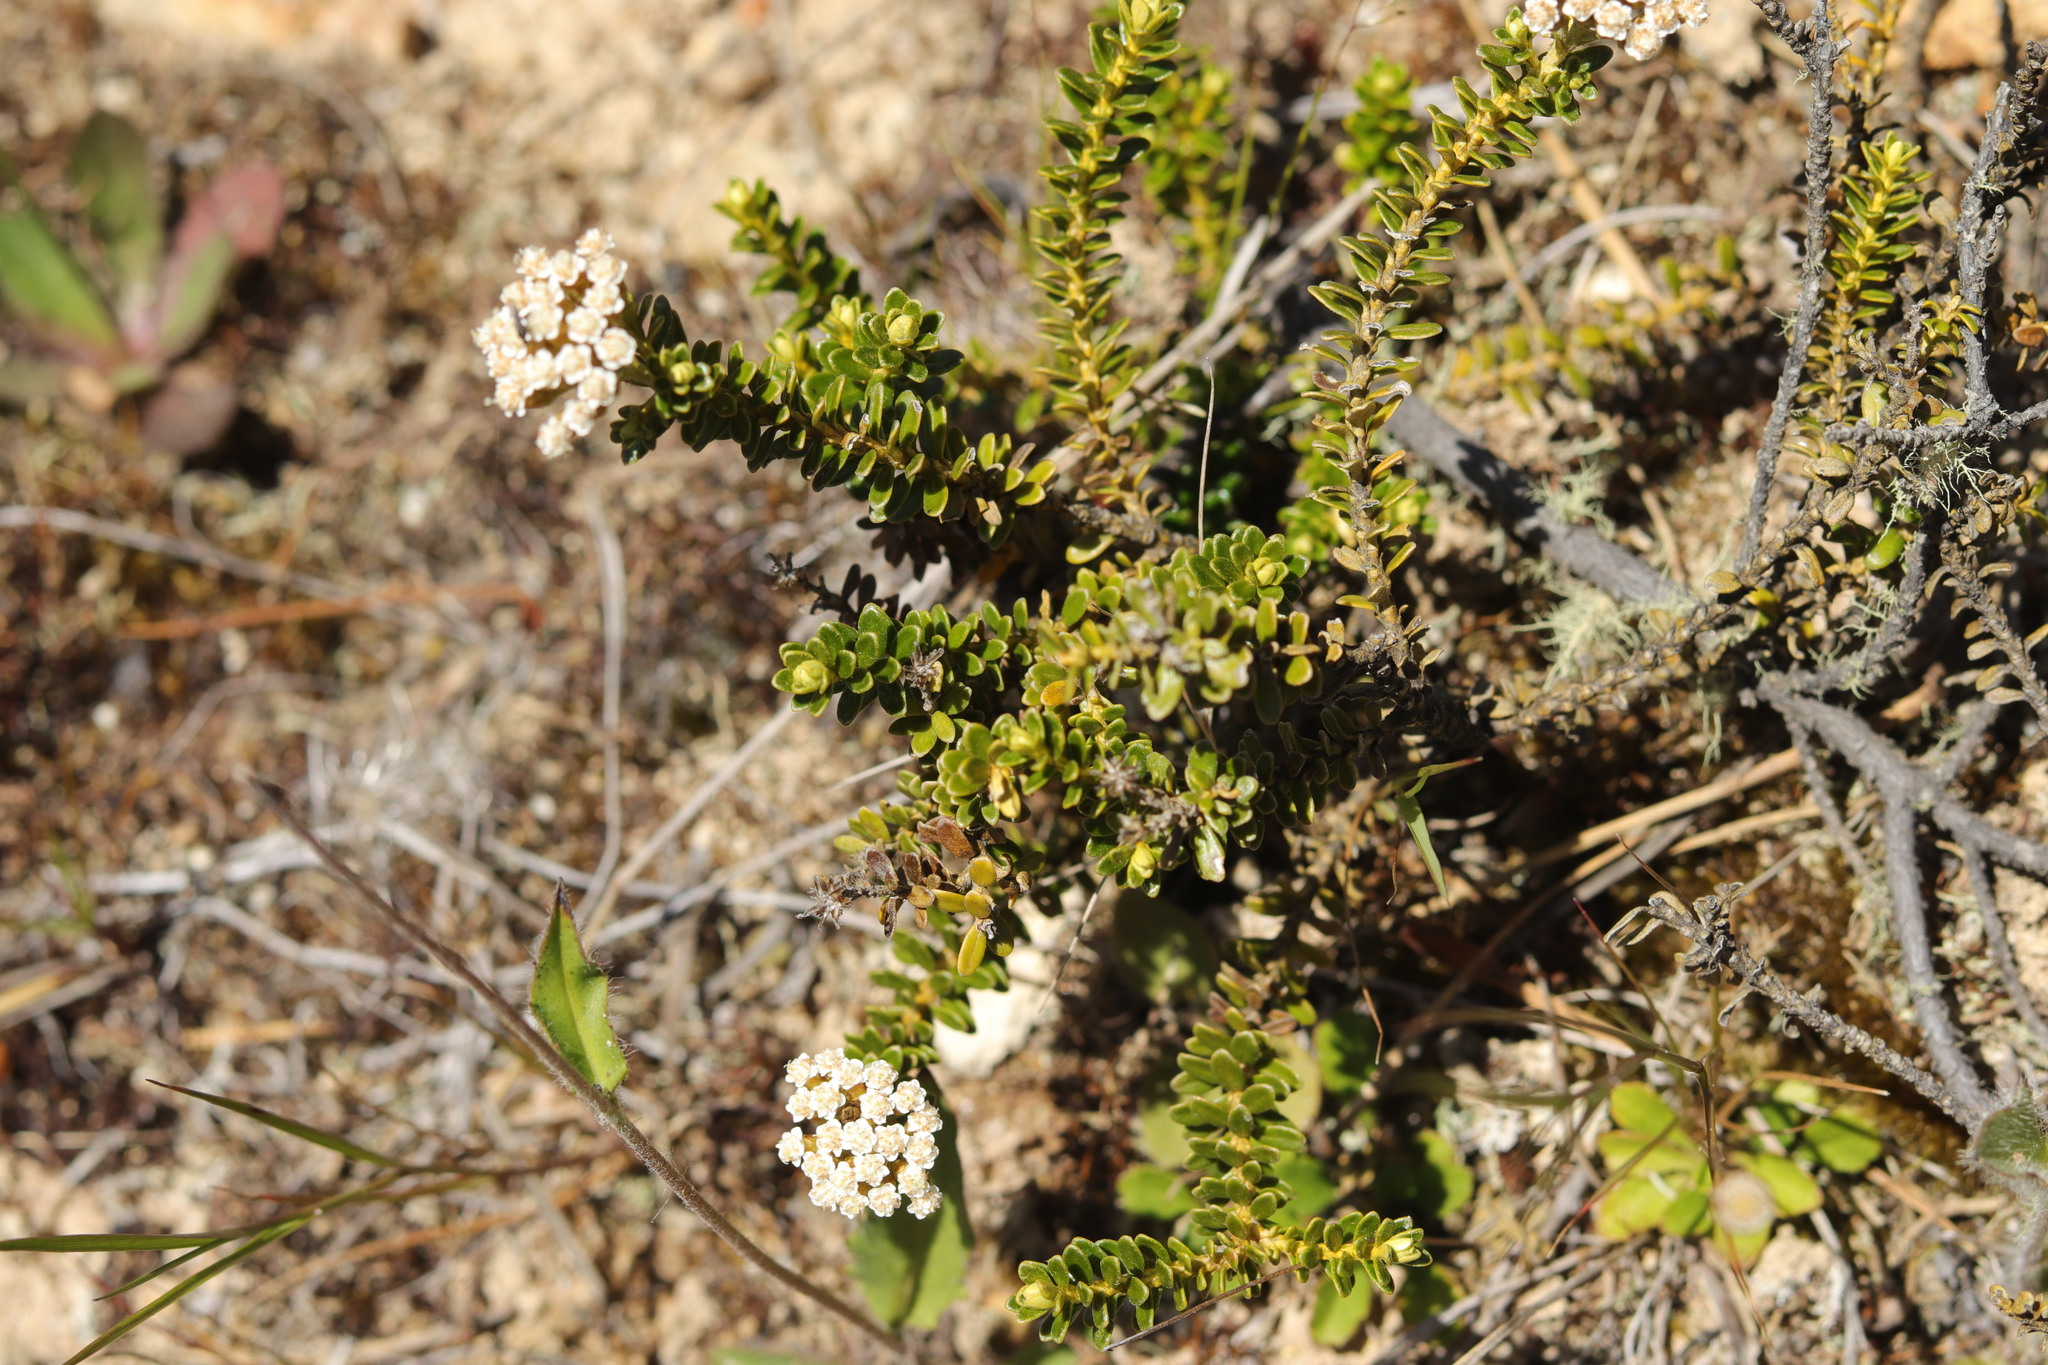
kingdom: Plantae
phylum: Tracheophyta
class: Magnoliopsida
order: Asterales
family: Asteraceae
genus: Ozothamnus
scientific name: Ozothamnus leptophyllus
